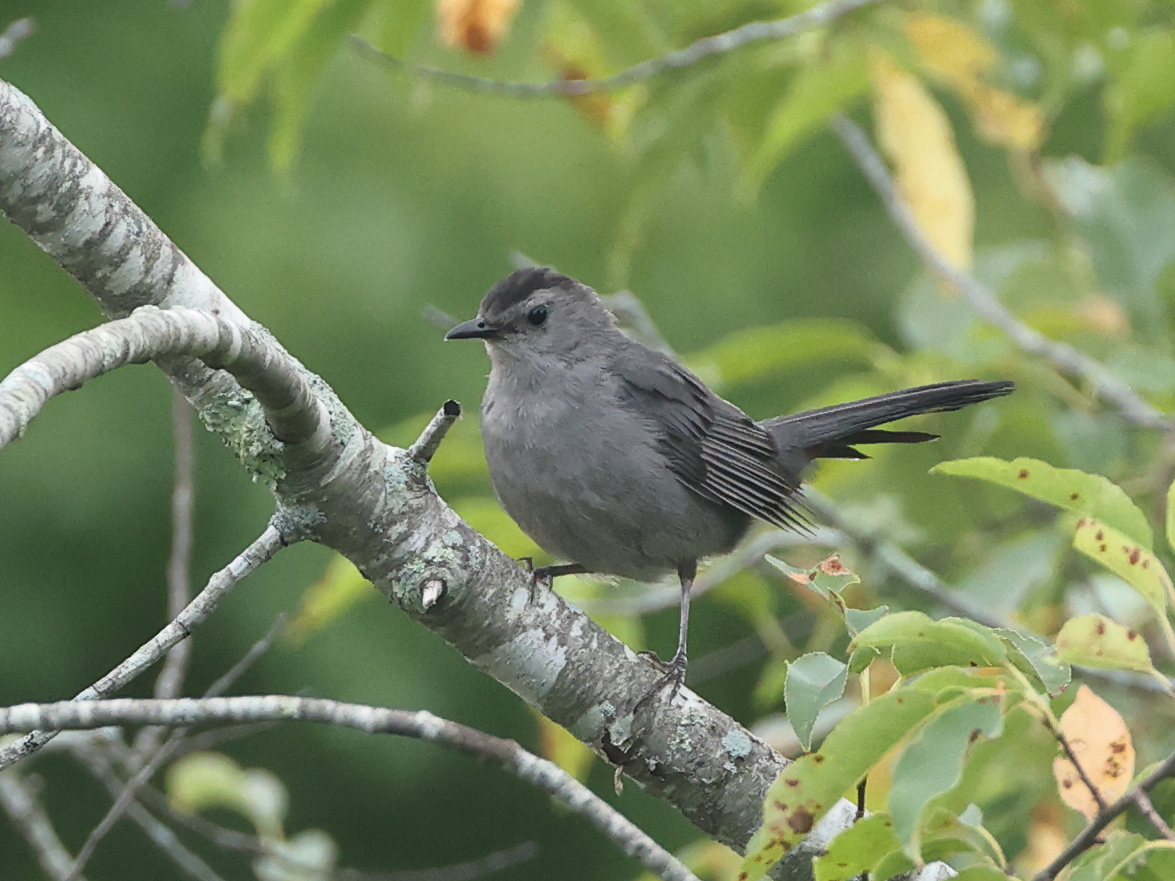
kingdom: Animalia
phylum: Chordata
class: Aves
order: Passeriformes
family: Mimidae
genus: Dumetella
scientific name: Dumetella carolinensis
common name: Gray catbird
